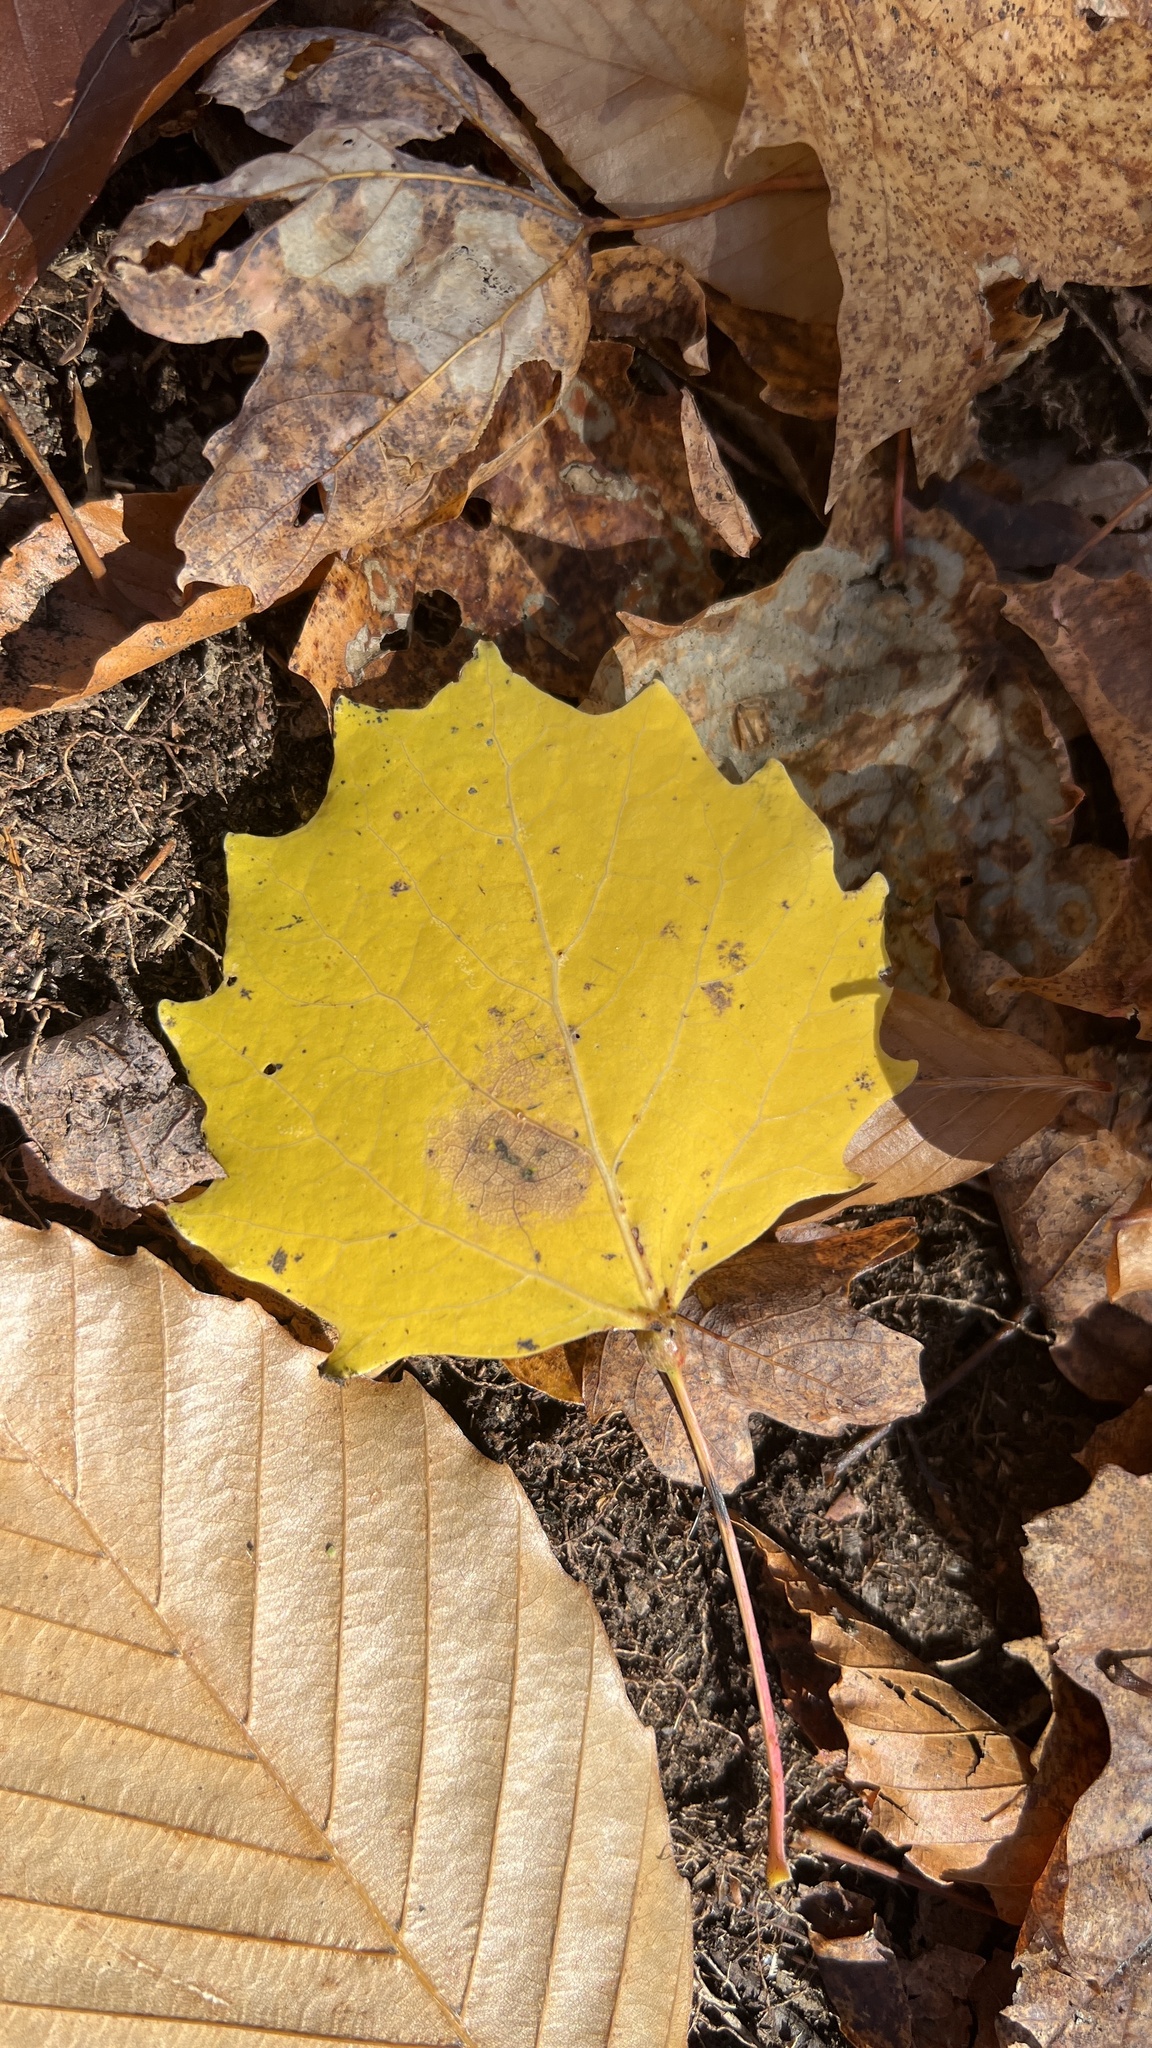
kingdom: Plantae
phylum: Tracheophyta
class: Magnoliopsida
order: Malpighiales
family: Salicaceae
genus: Populus
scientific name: Populus grandidentata
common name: Bigtooth aspen
